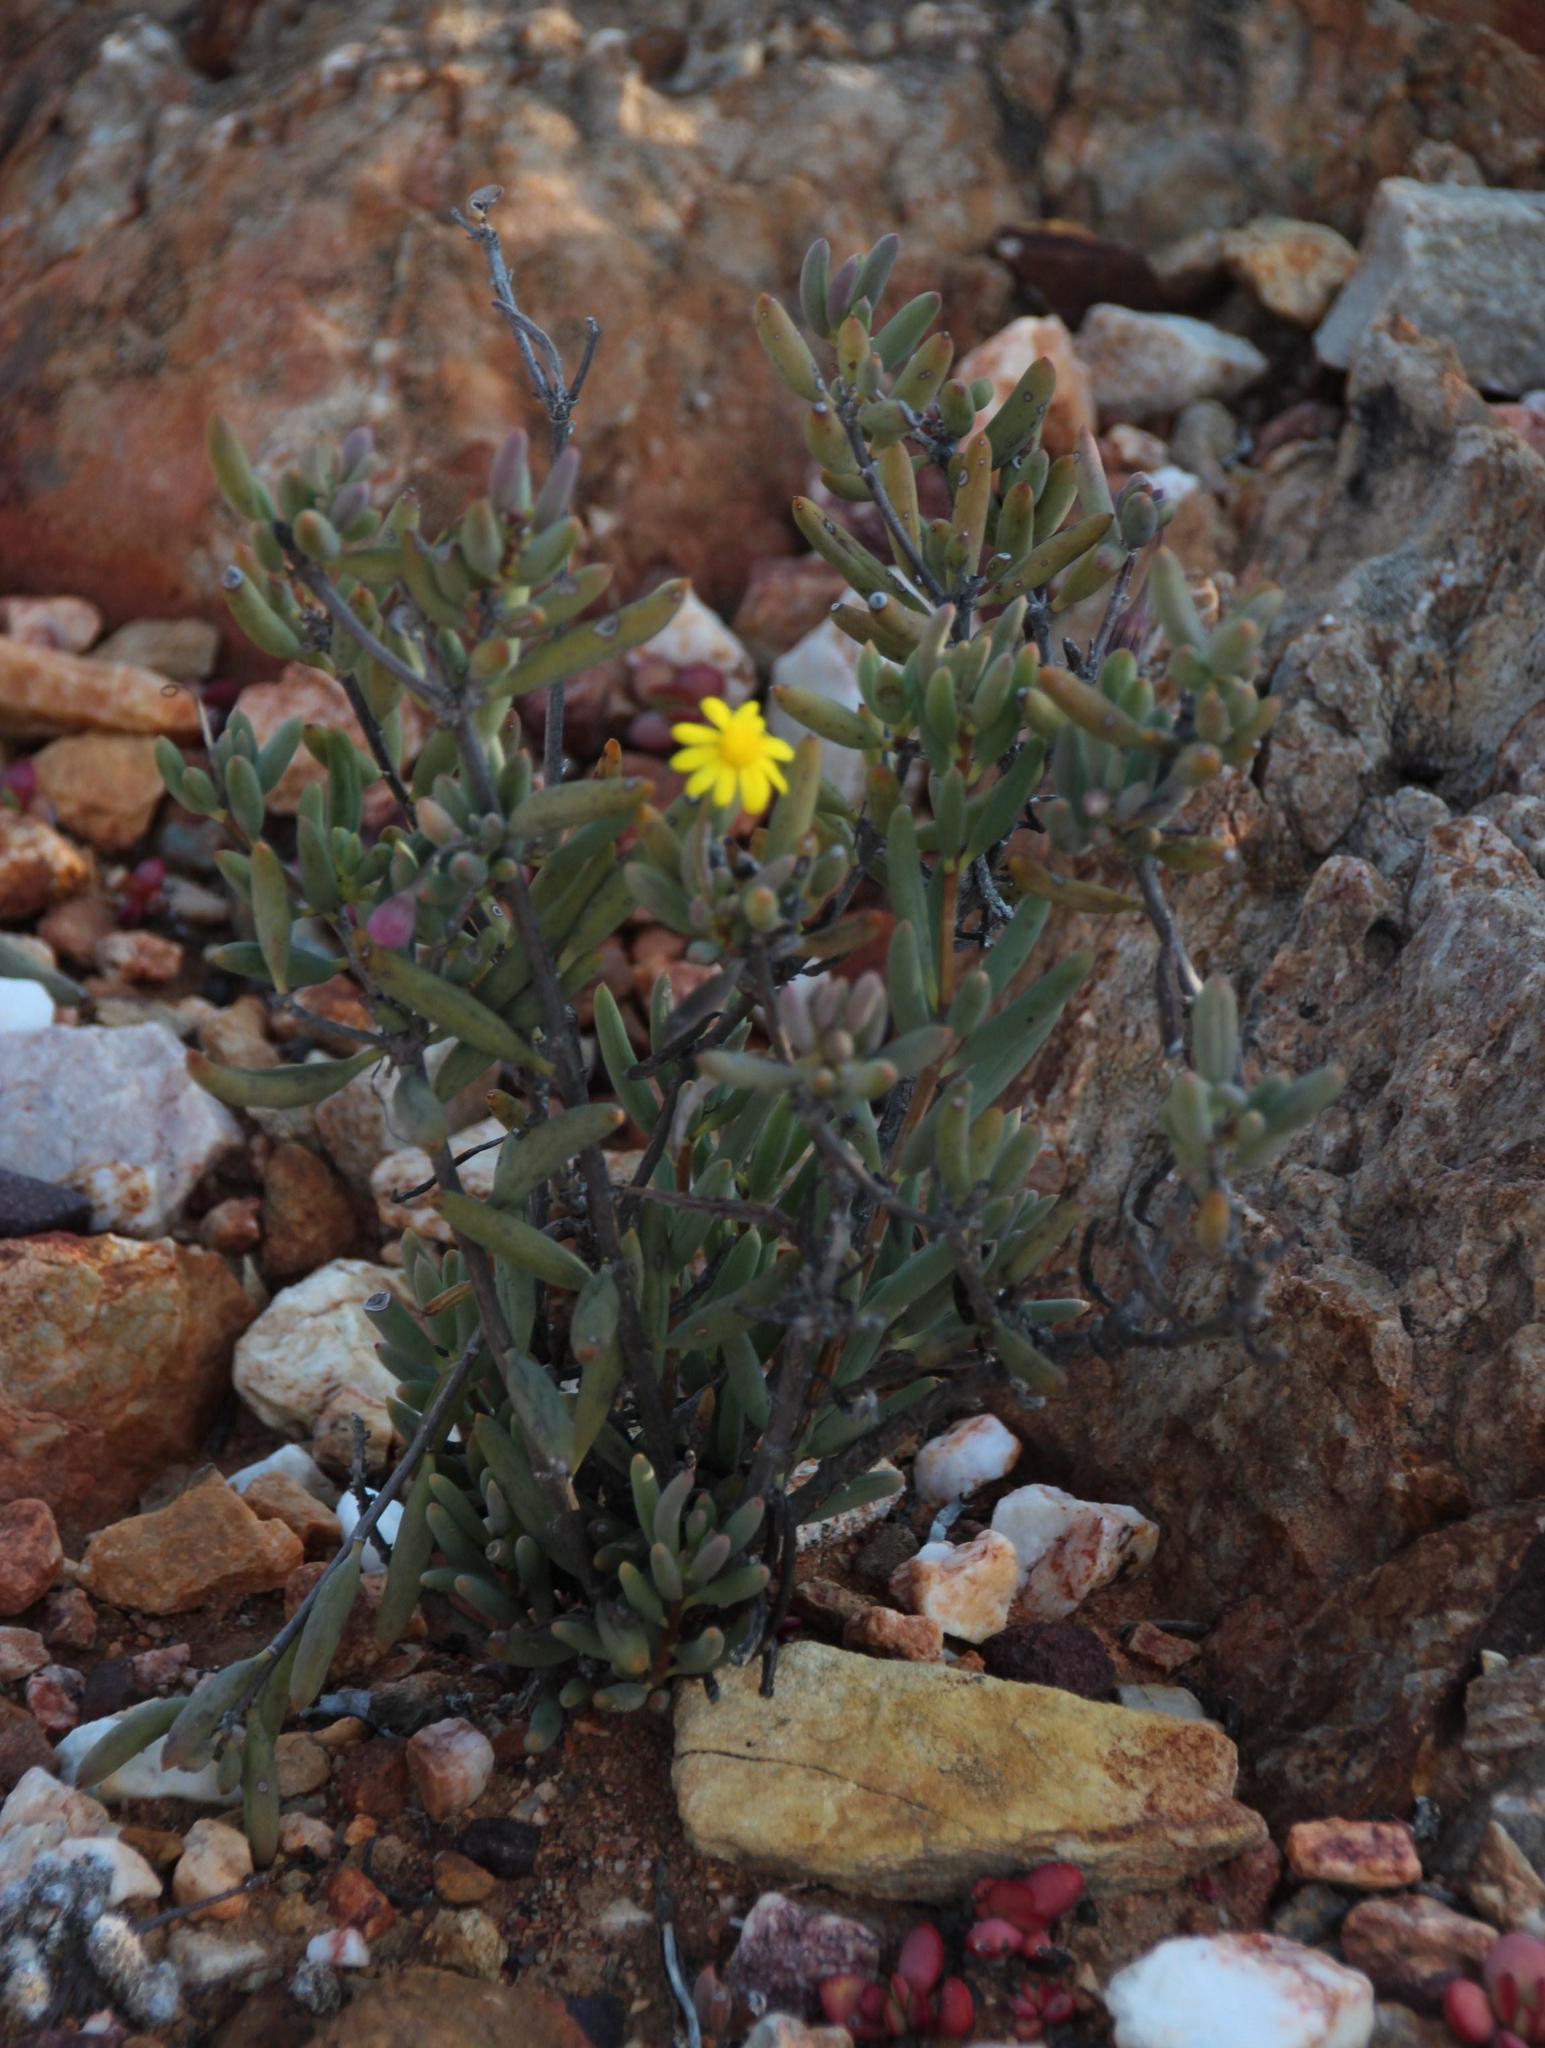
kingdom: Plantae
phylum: Tracheophyta
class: Magnoliopsida
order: Asterales
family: Asteraceae
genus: Crassothonna
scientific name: Crassothonna cacalioides
